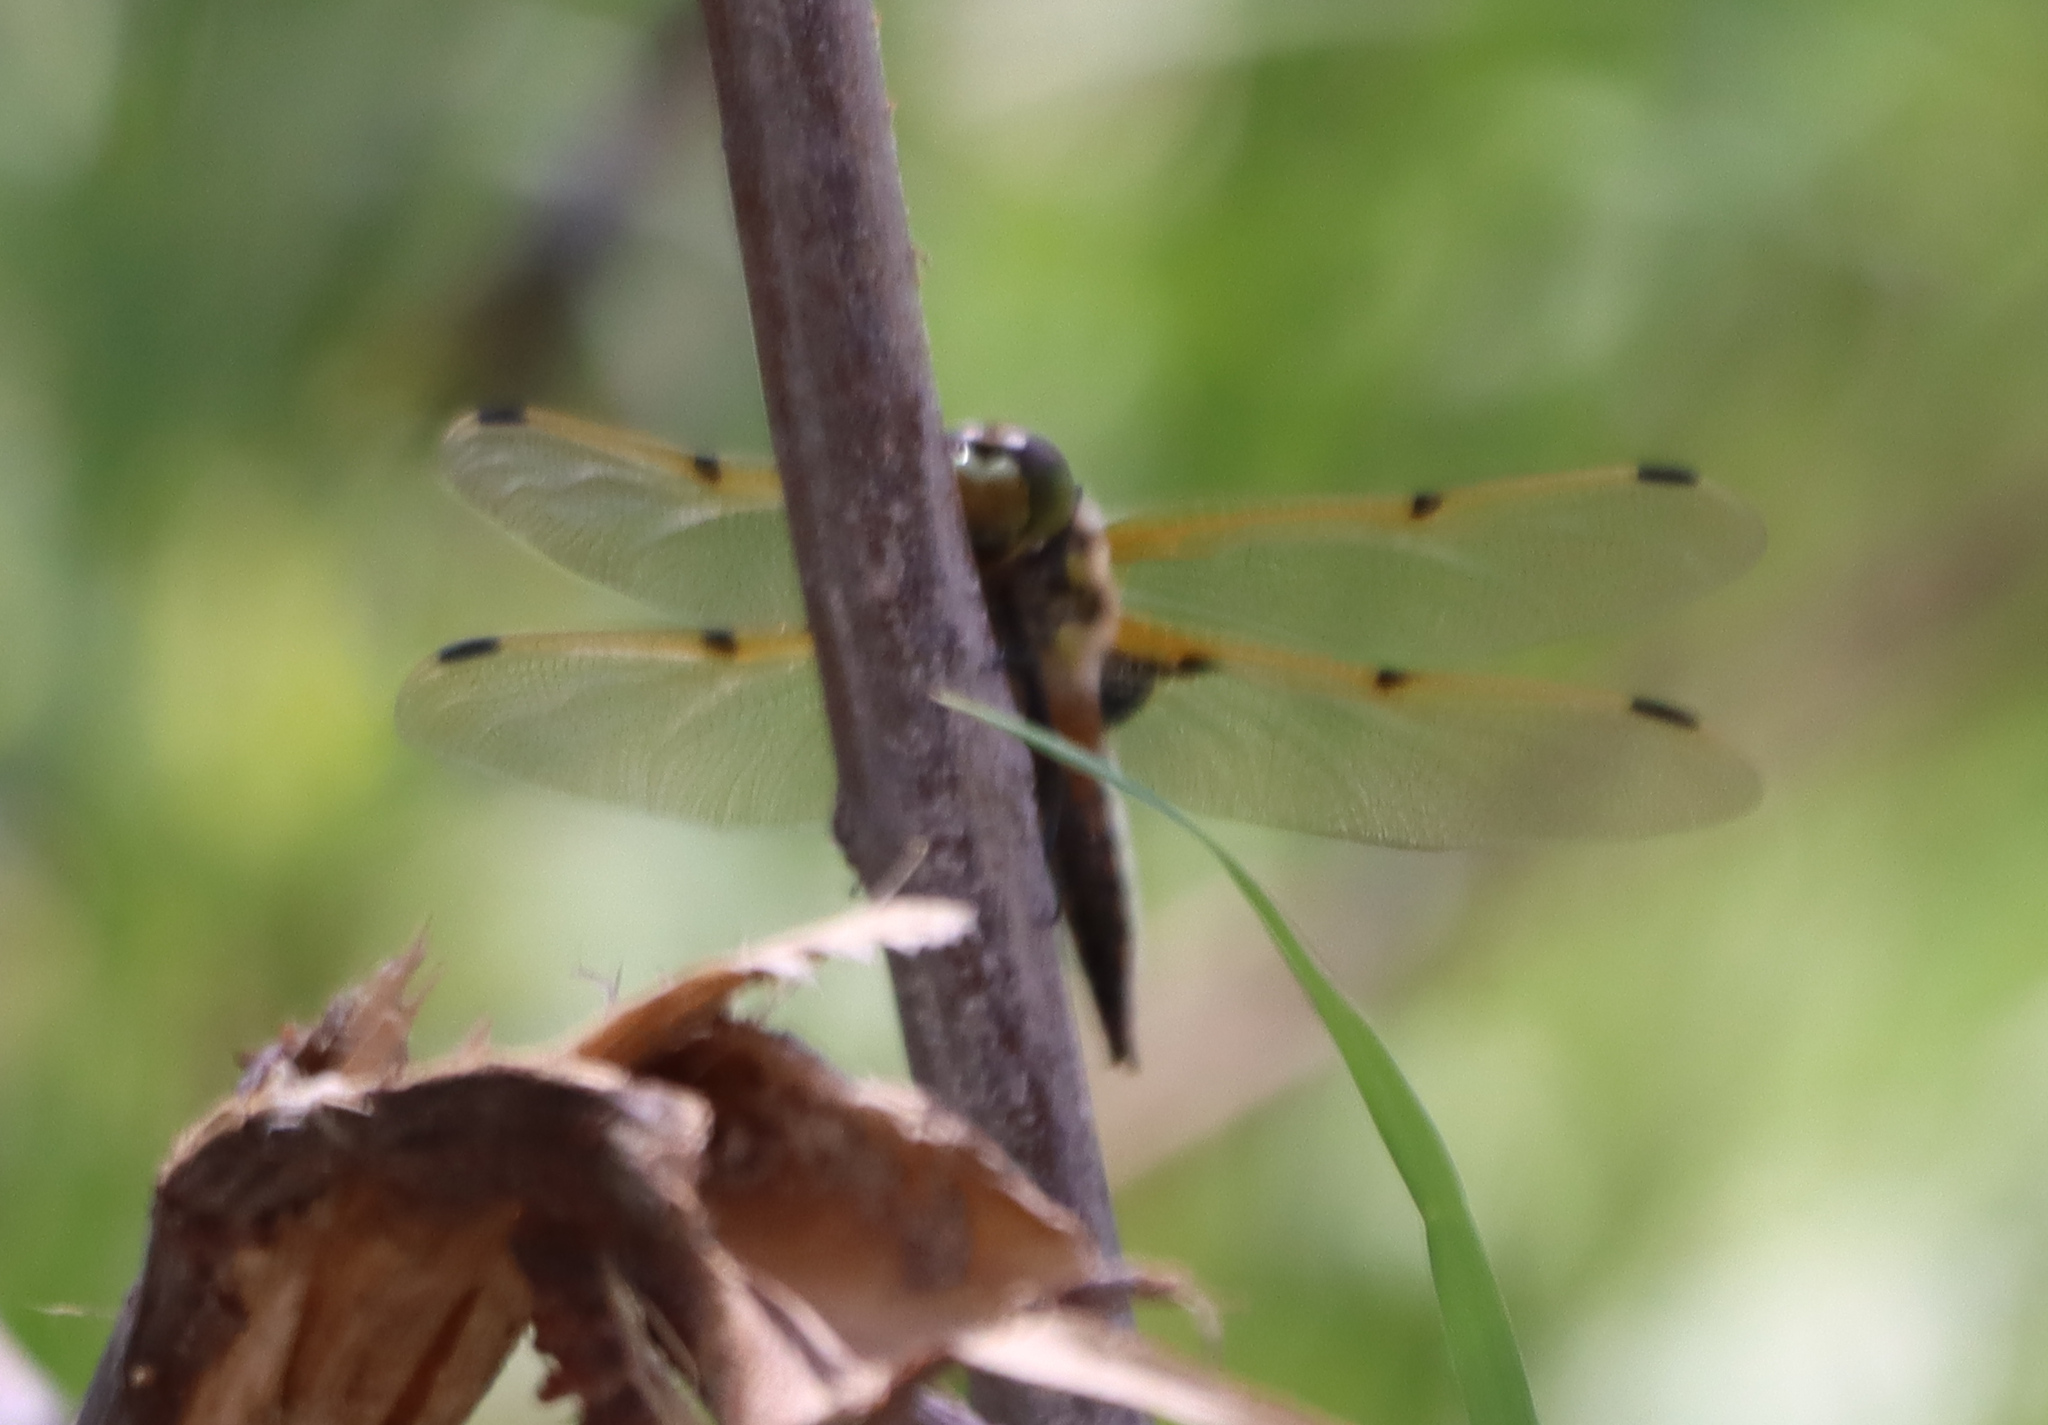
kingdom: Animalia
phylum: Arthropoda
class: Insecta
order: Odonata
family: Libellulidae
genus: Libellula
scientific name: Libellula quadrimaculata
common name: Four-spotted chaser
